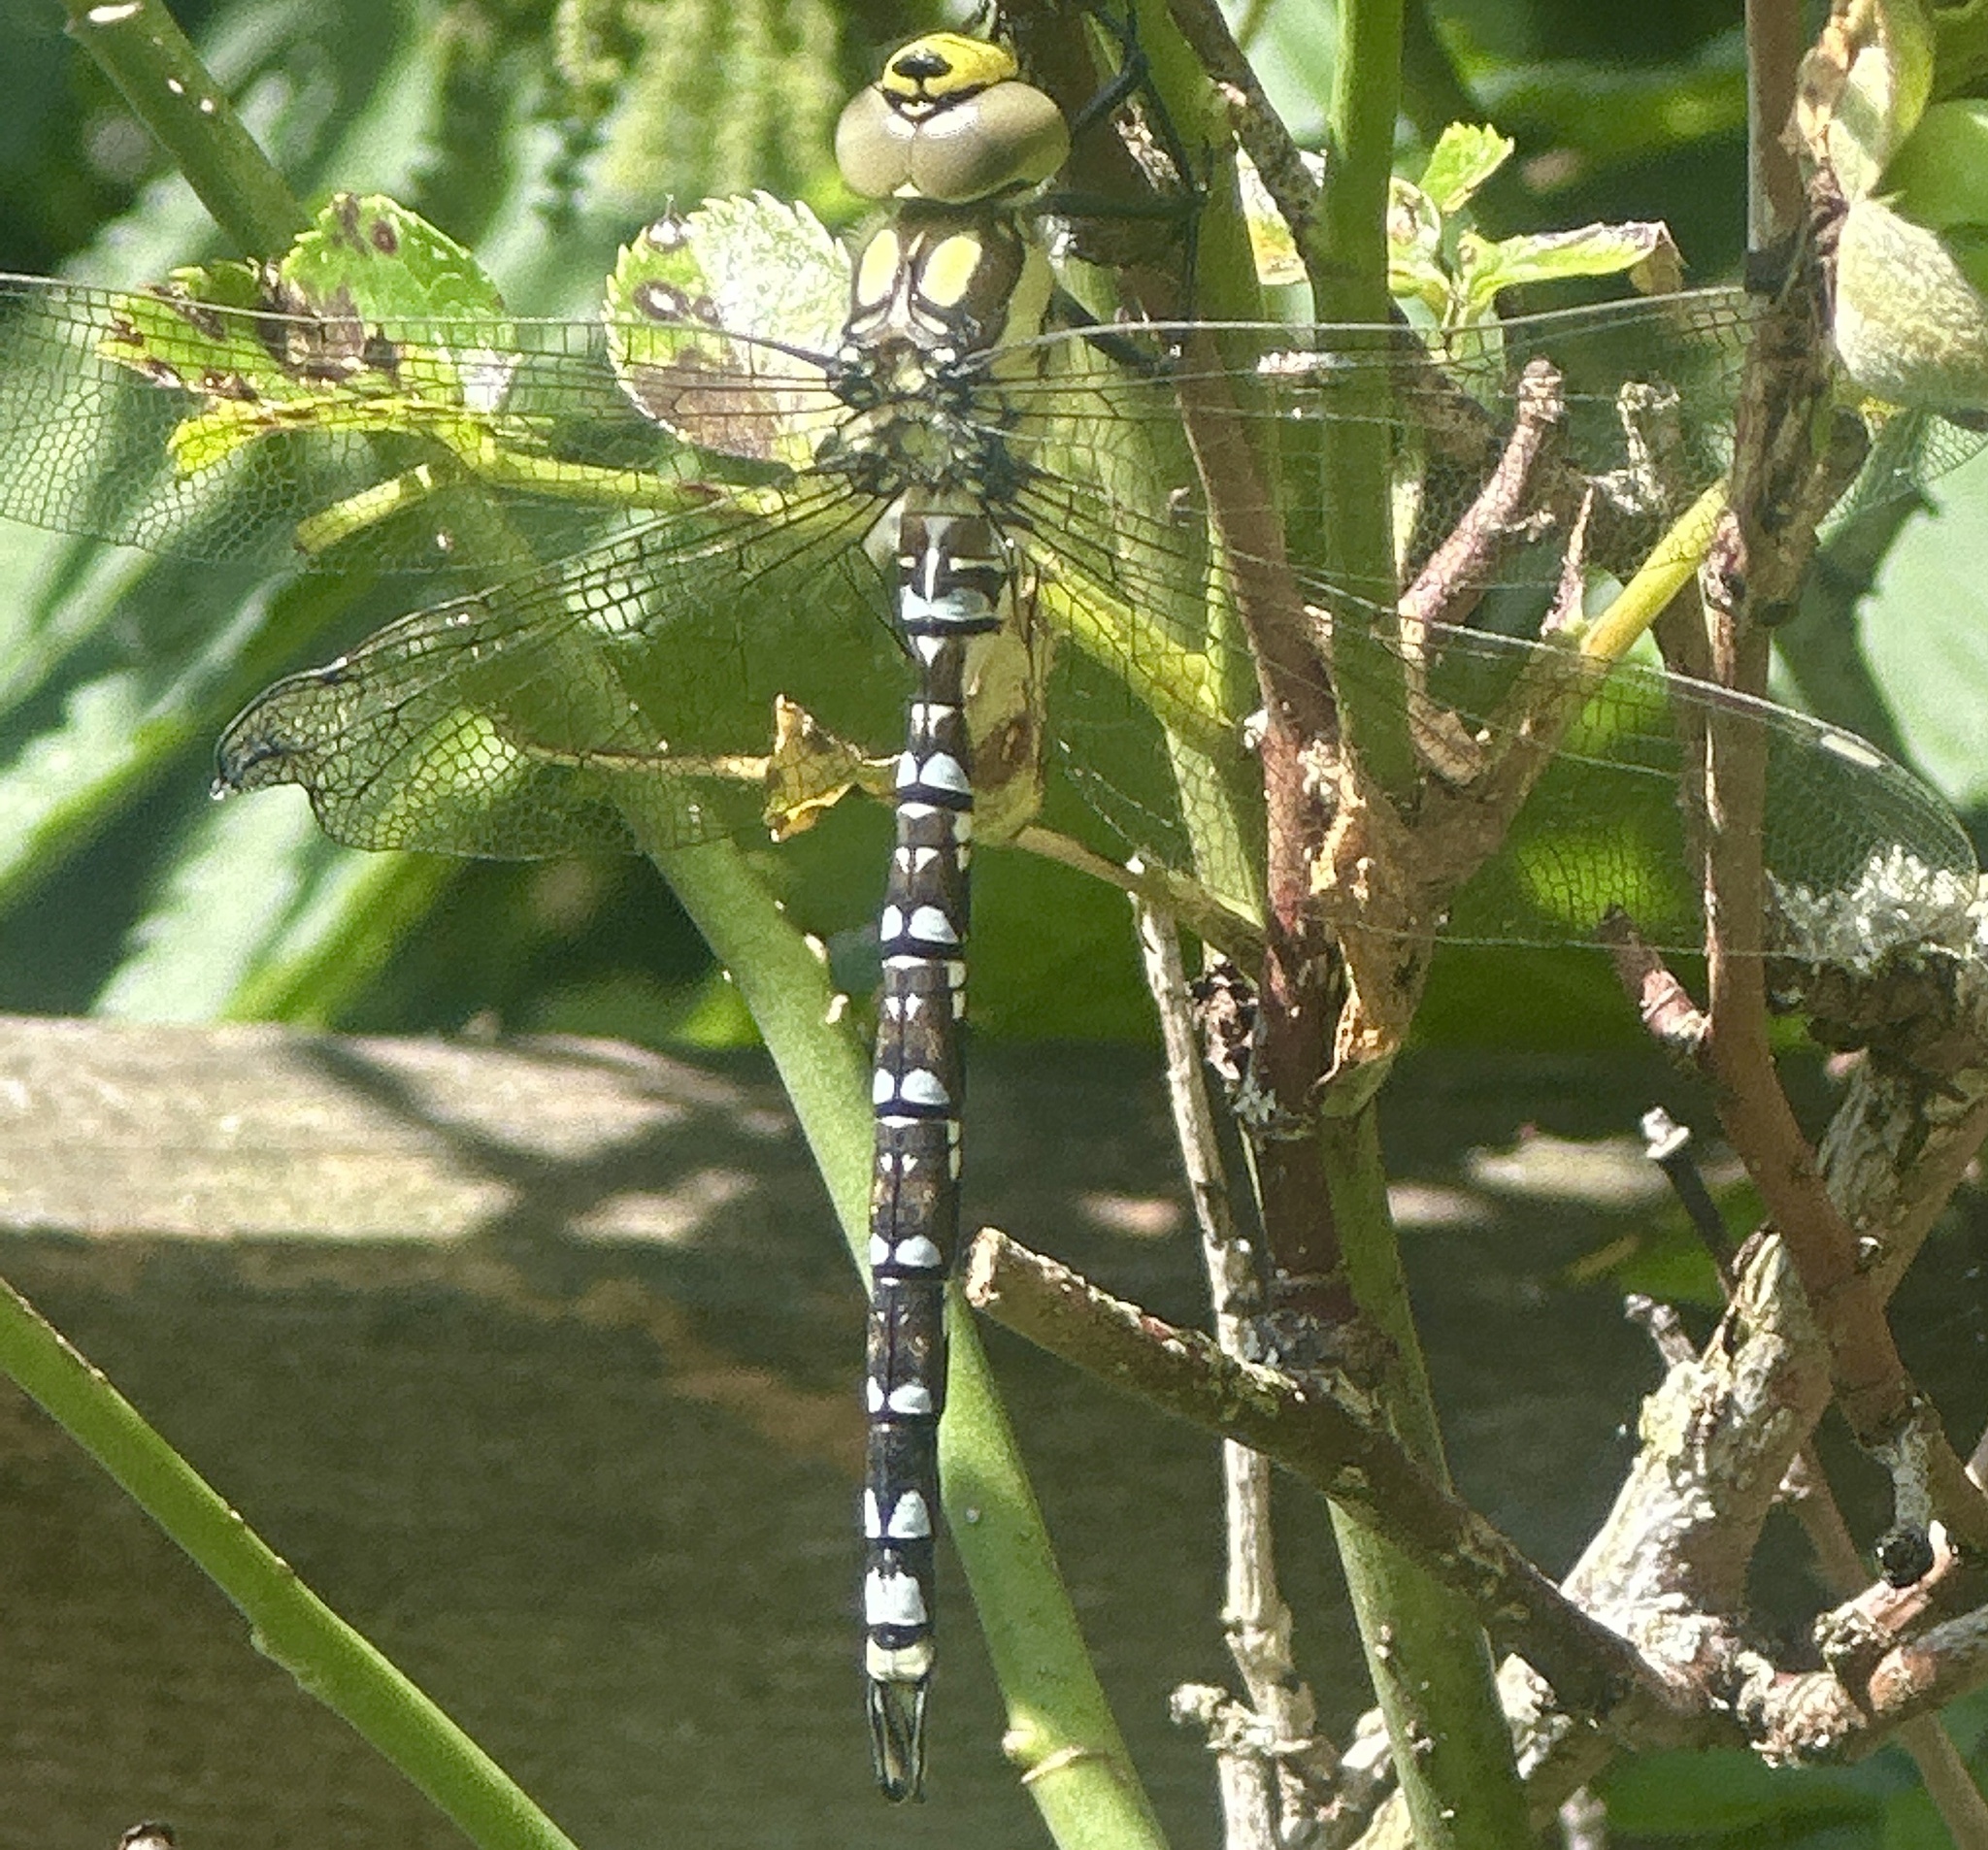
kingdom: Animalia
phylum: Arthropoda
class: Insecta
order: Odonata
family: Aeshnidae
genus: Aeshna
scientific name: Aeshna cyanea
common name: Southern hawker
